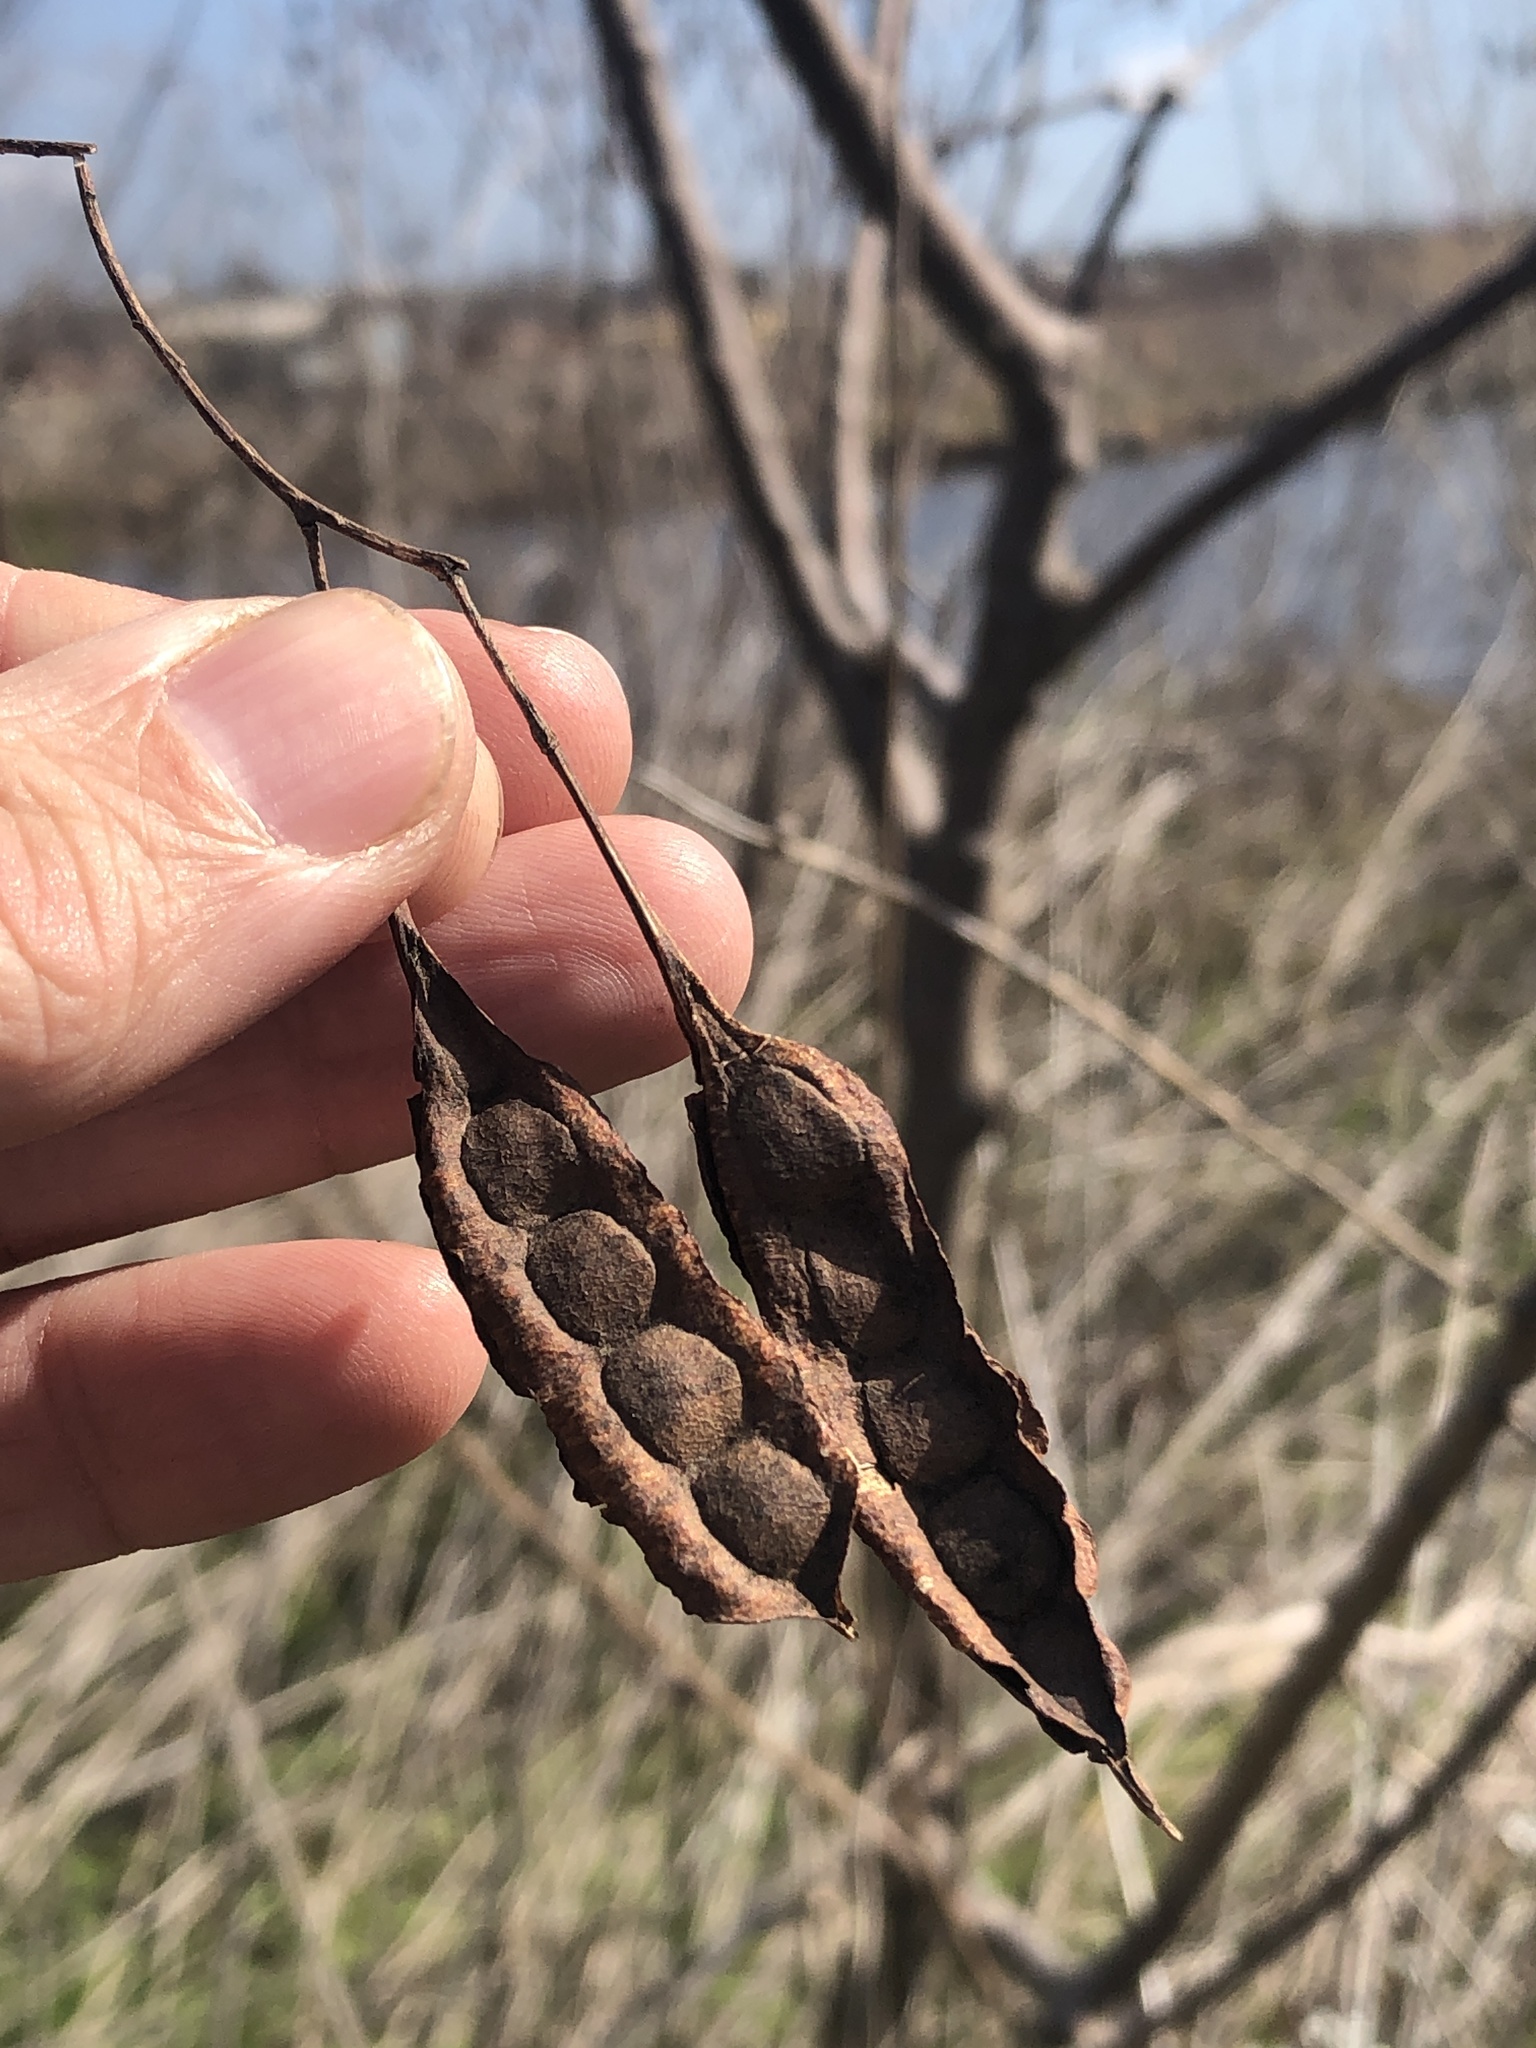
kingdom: Plantae
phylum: Tracheophyta
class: Magnoliopsida
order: Fabales
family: Fabaceae
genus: Sesbania
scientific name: Sesbania drummondii
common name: Poison-bean
